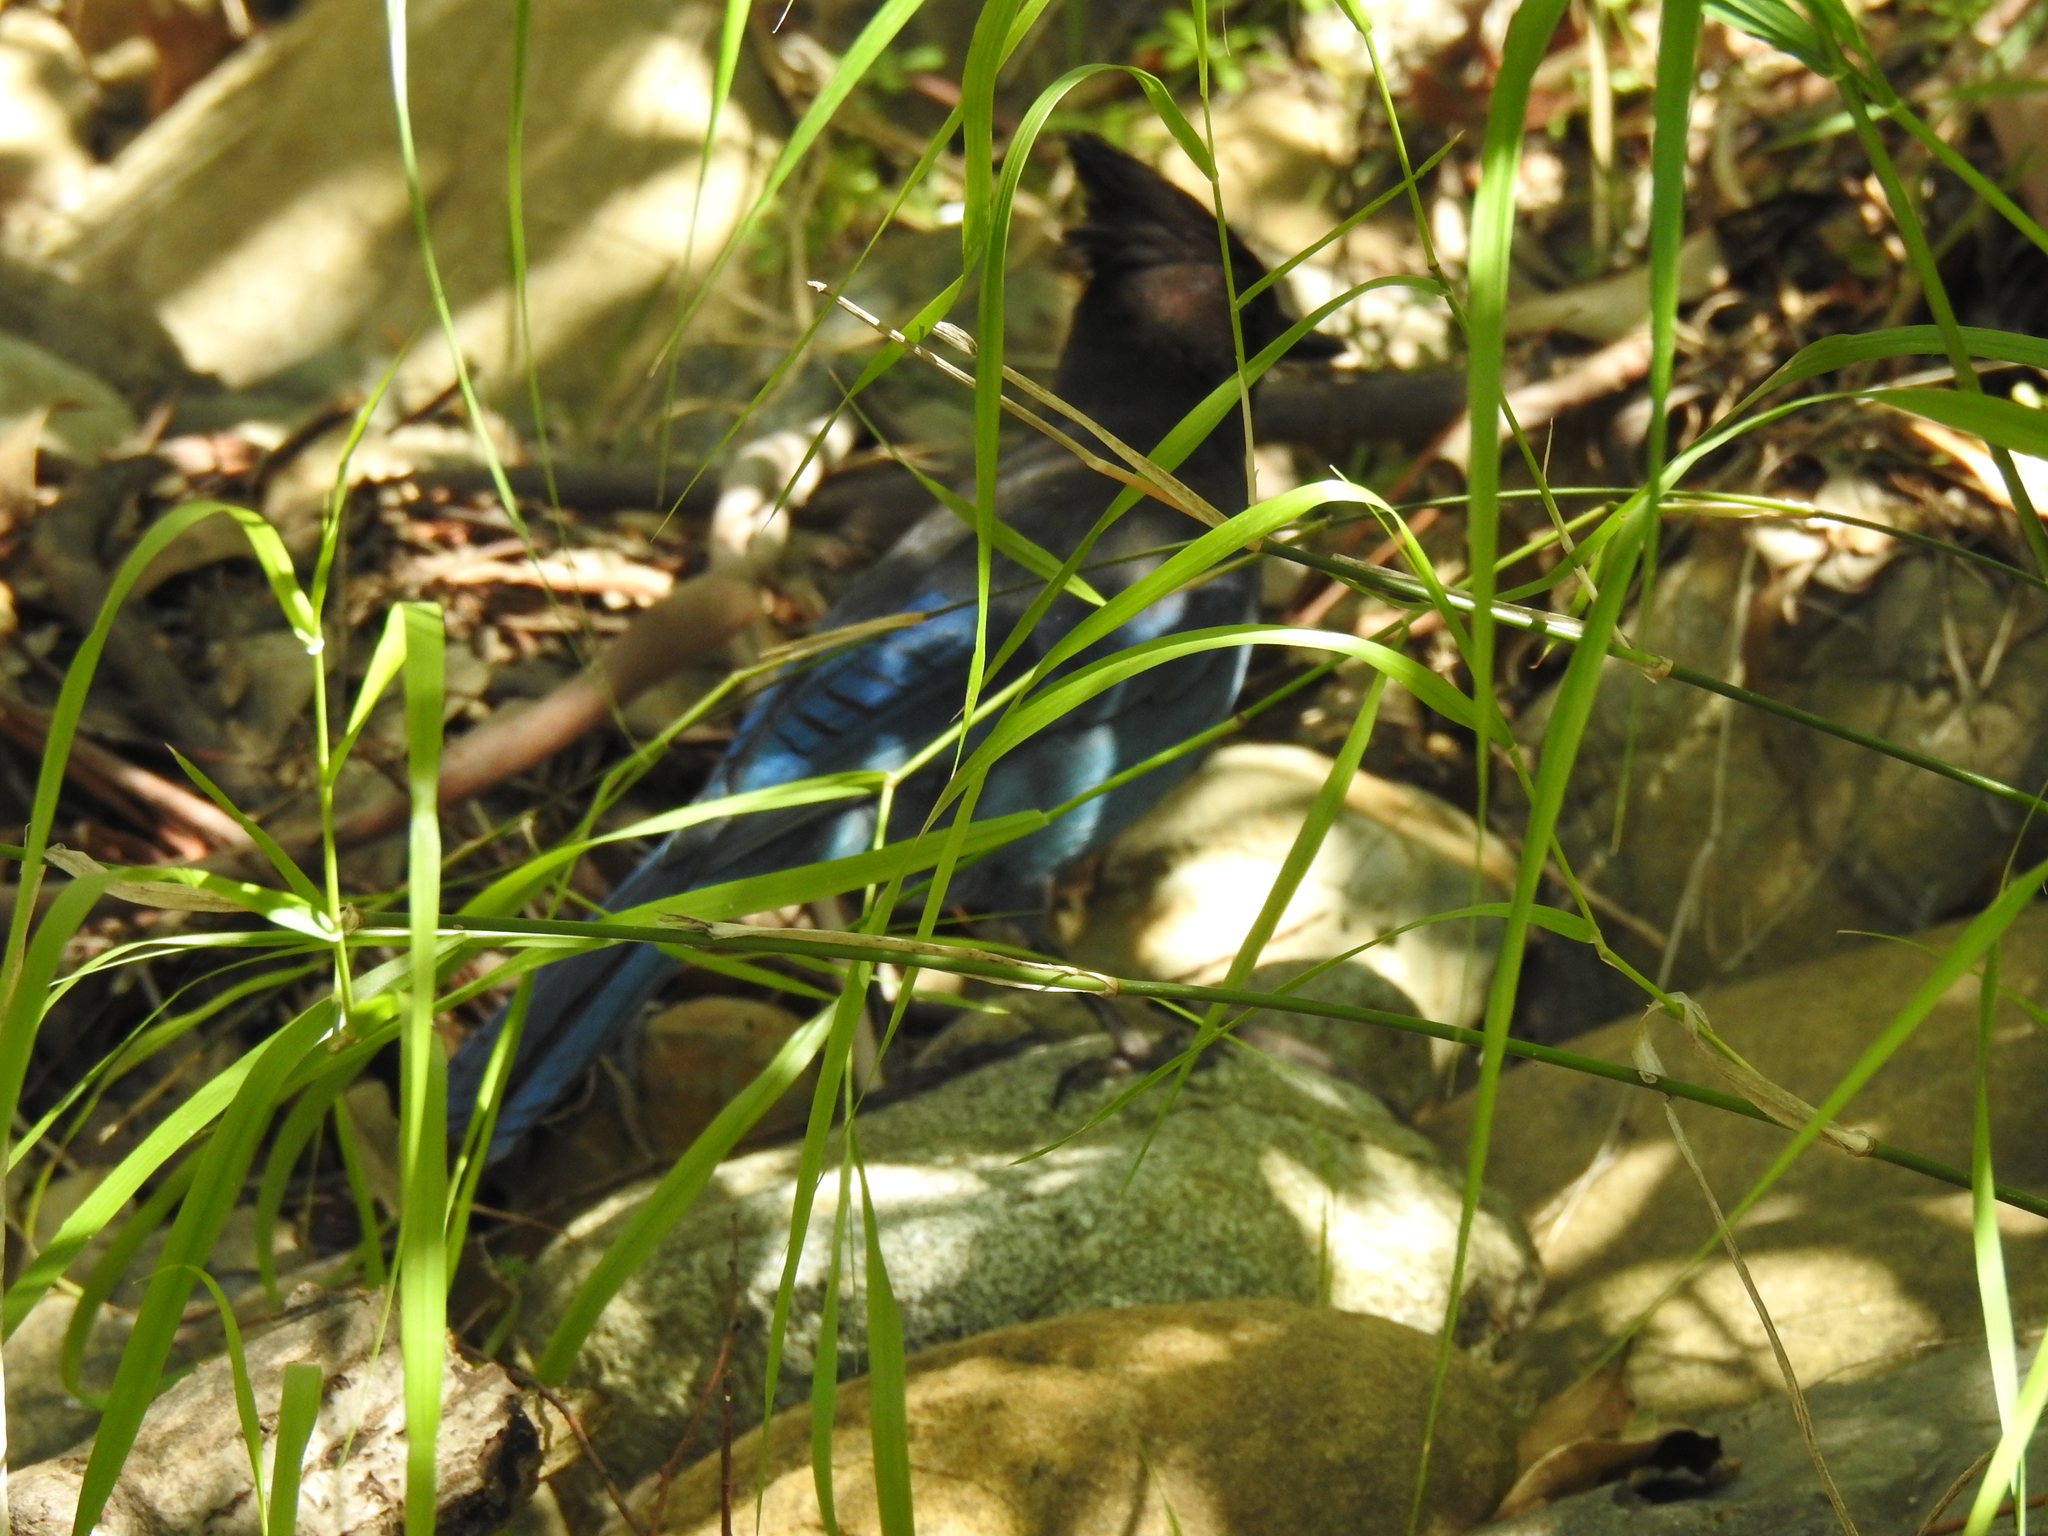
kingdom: Animalia
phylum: Chordata
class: Aves
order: Passeriformes
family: Corvidae
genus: Cyanocitta
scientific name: Cyanocitta stelleri
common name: Steller's jay
